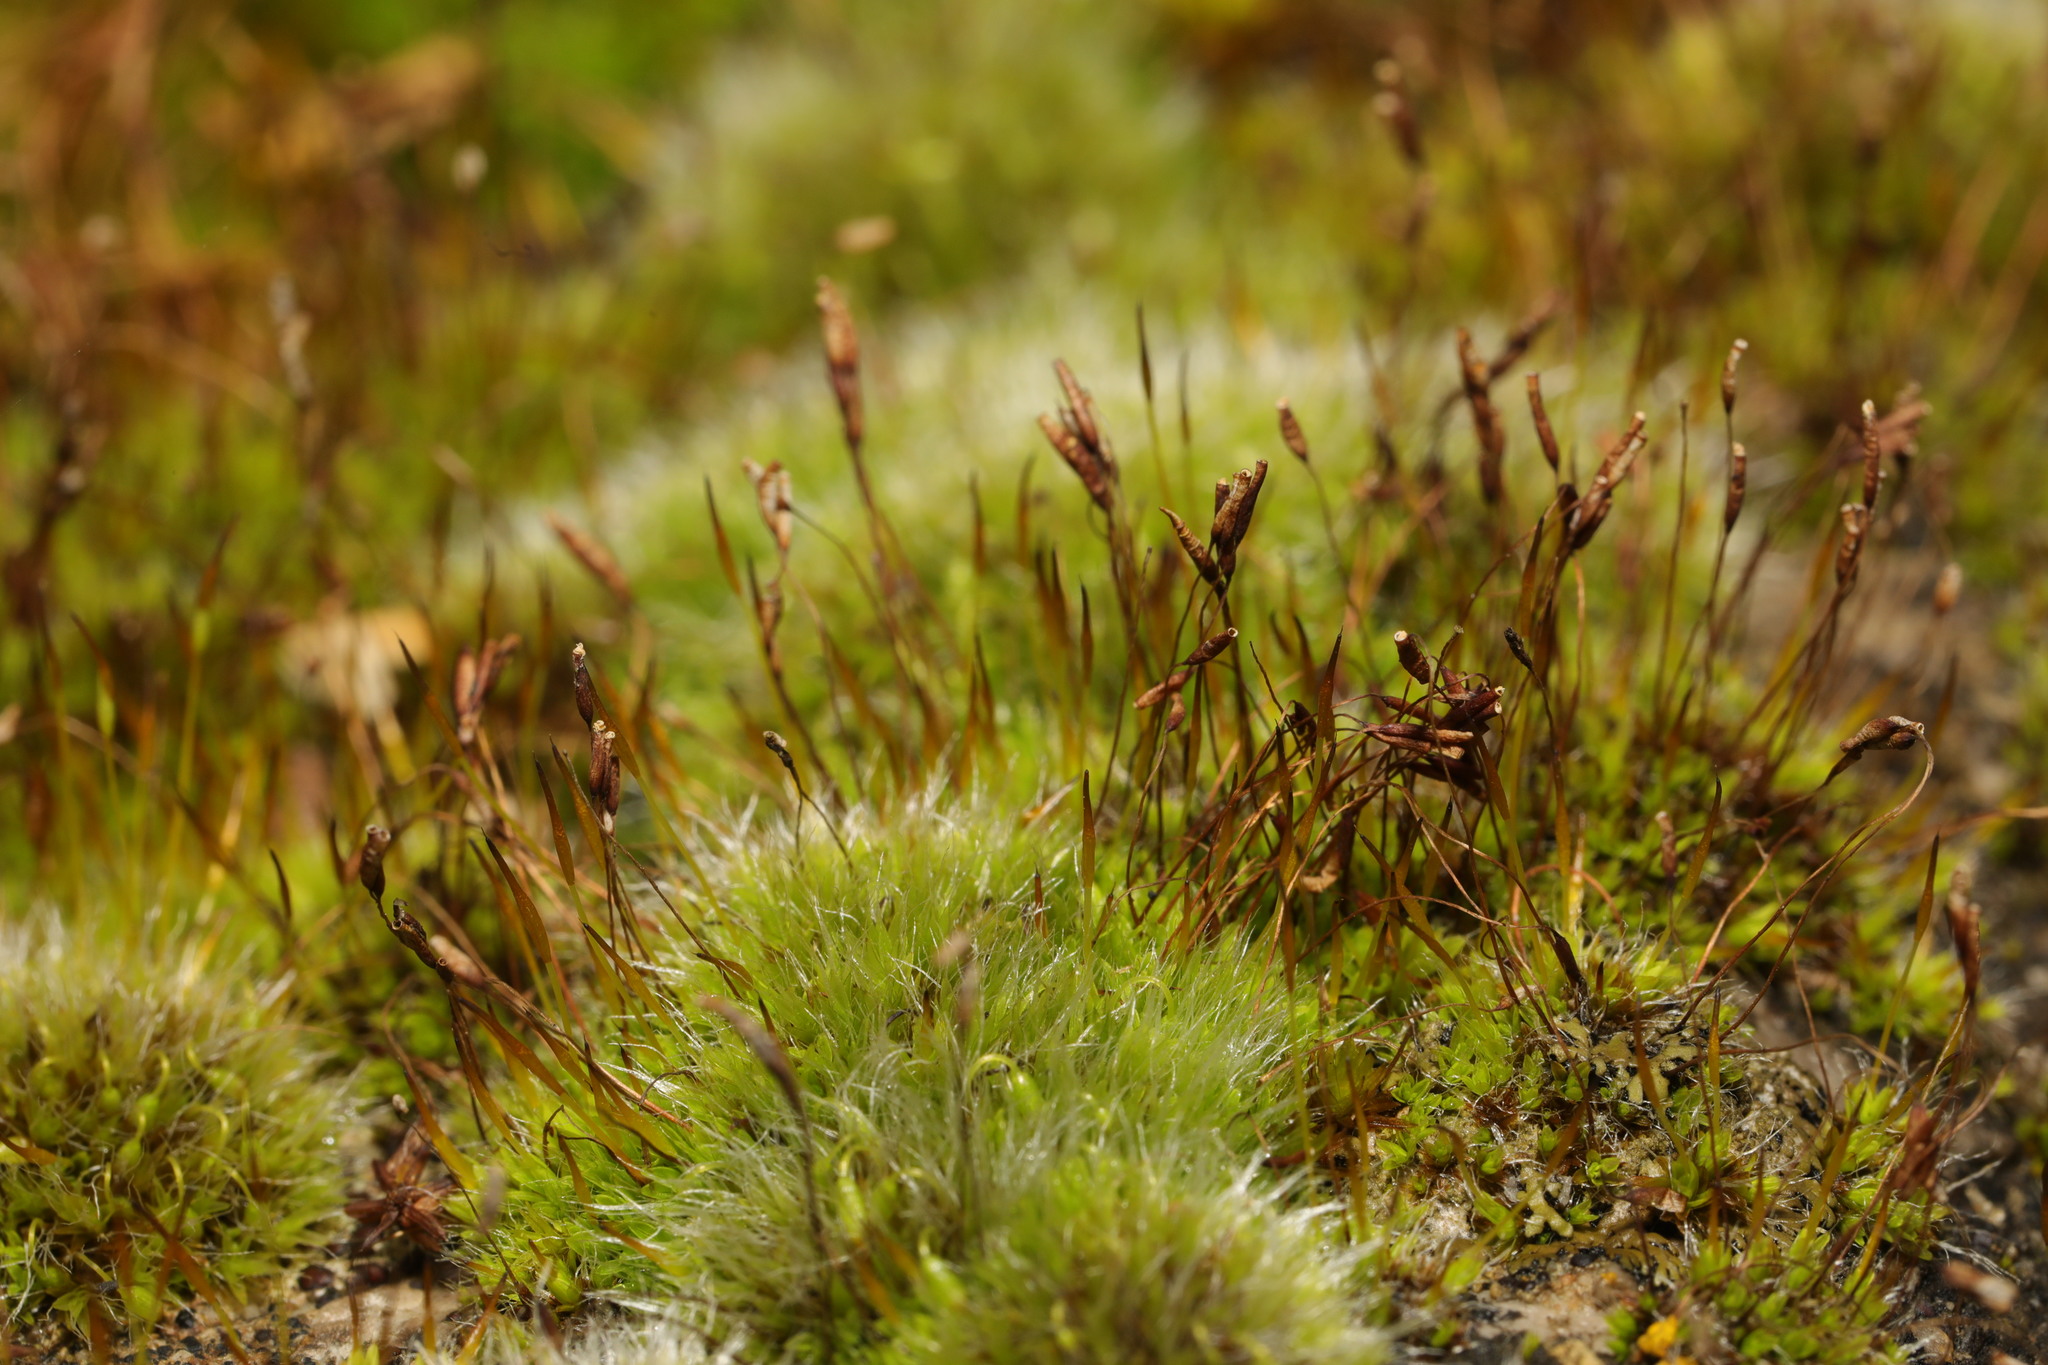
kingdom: Plantae
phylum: Bryophyta
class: Bryopsida
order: Pottiales
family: Pottiaceae
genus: Tortula
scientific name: Tortula muralis
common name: Wall screw-moss
